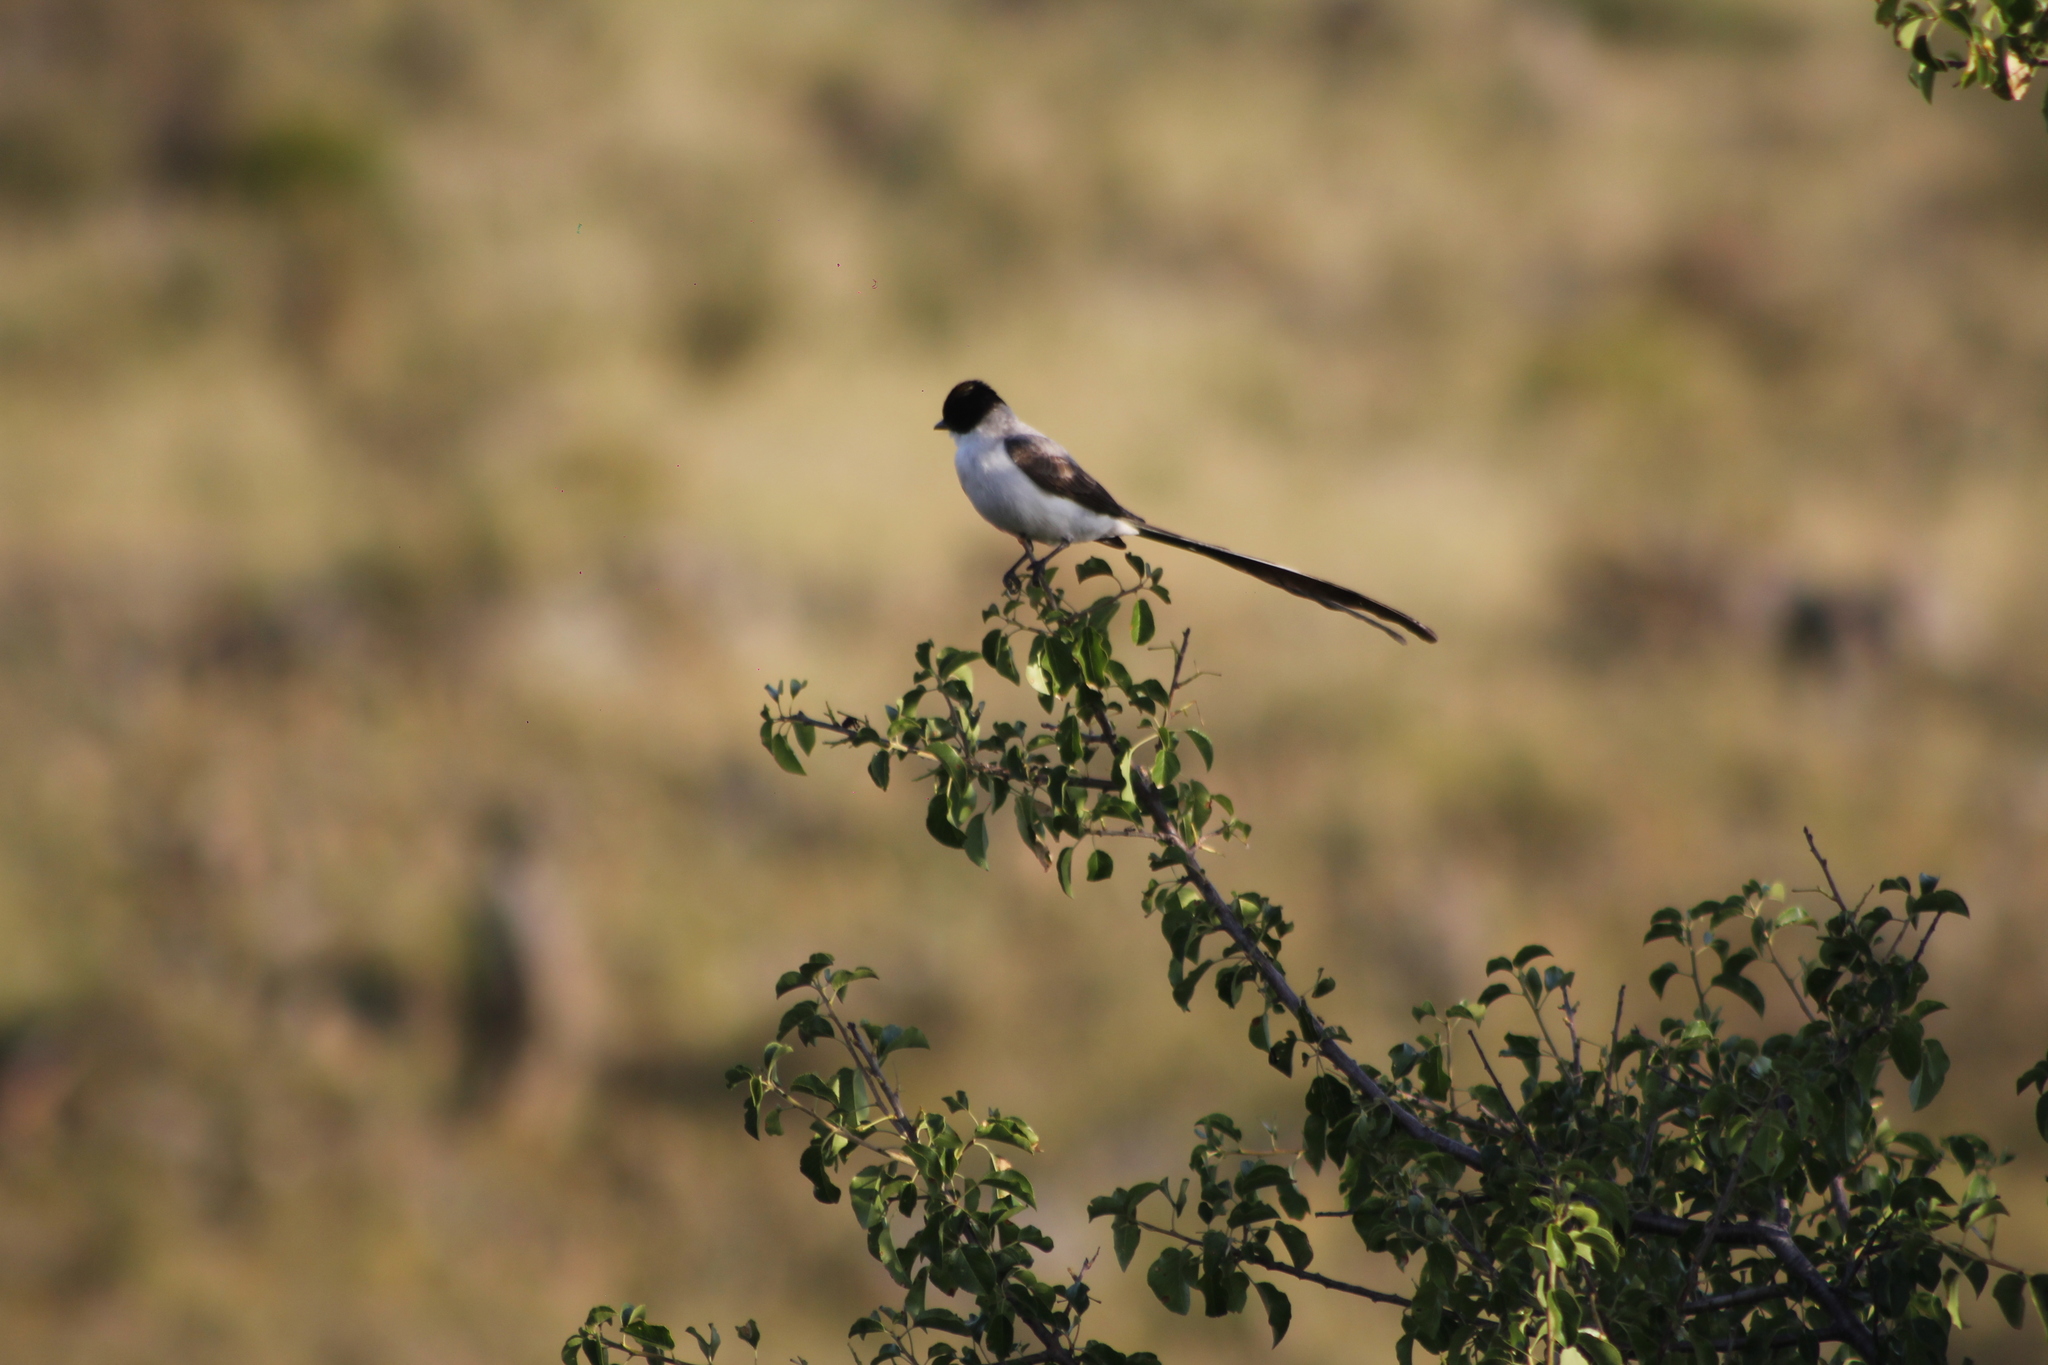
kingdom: Animalia
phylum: Chordata
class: Aves
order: Passeriformes
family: Tyrannidae
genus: Tyrannus
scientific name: Tyrannus savana
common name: Fork-tailed flycatcher
